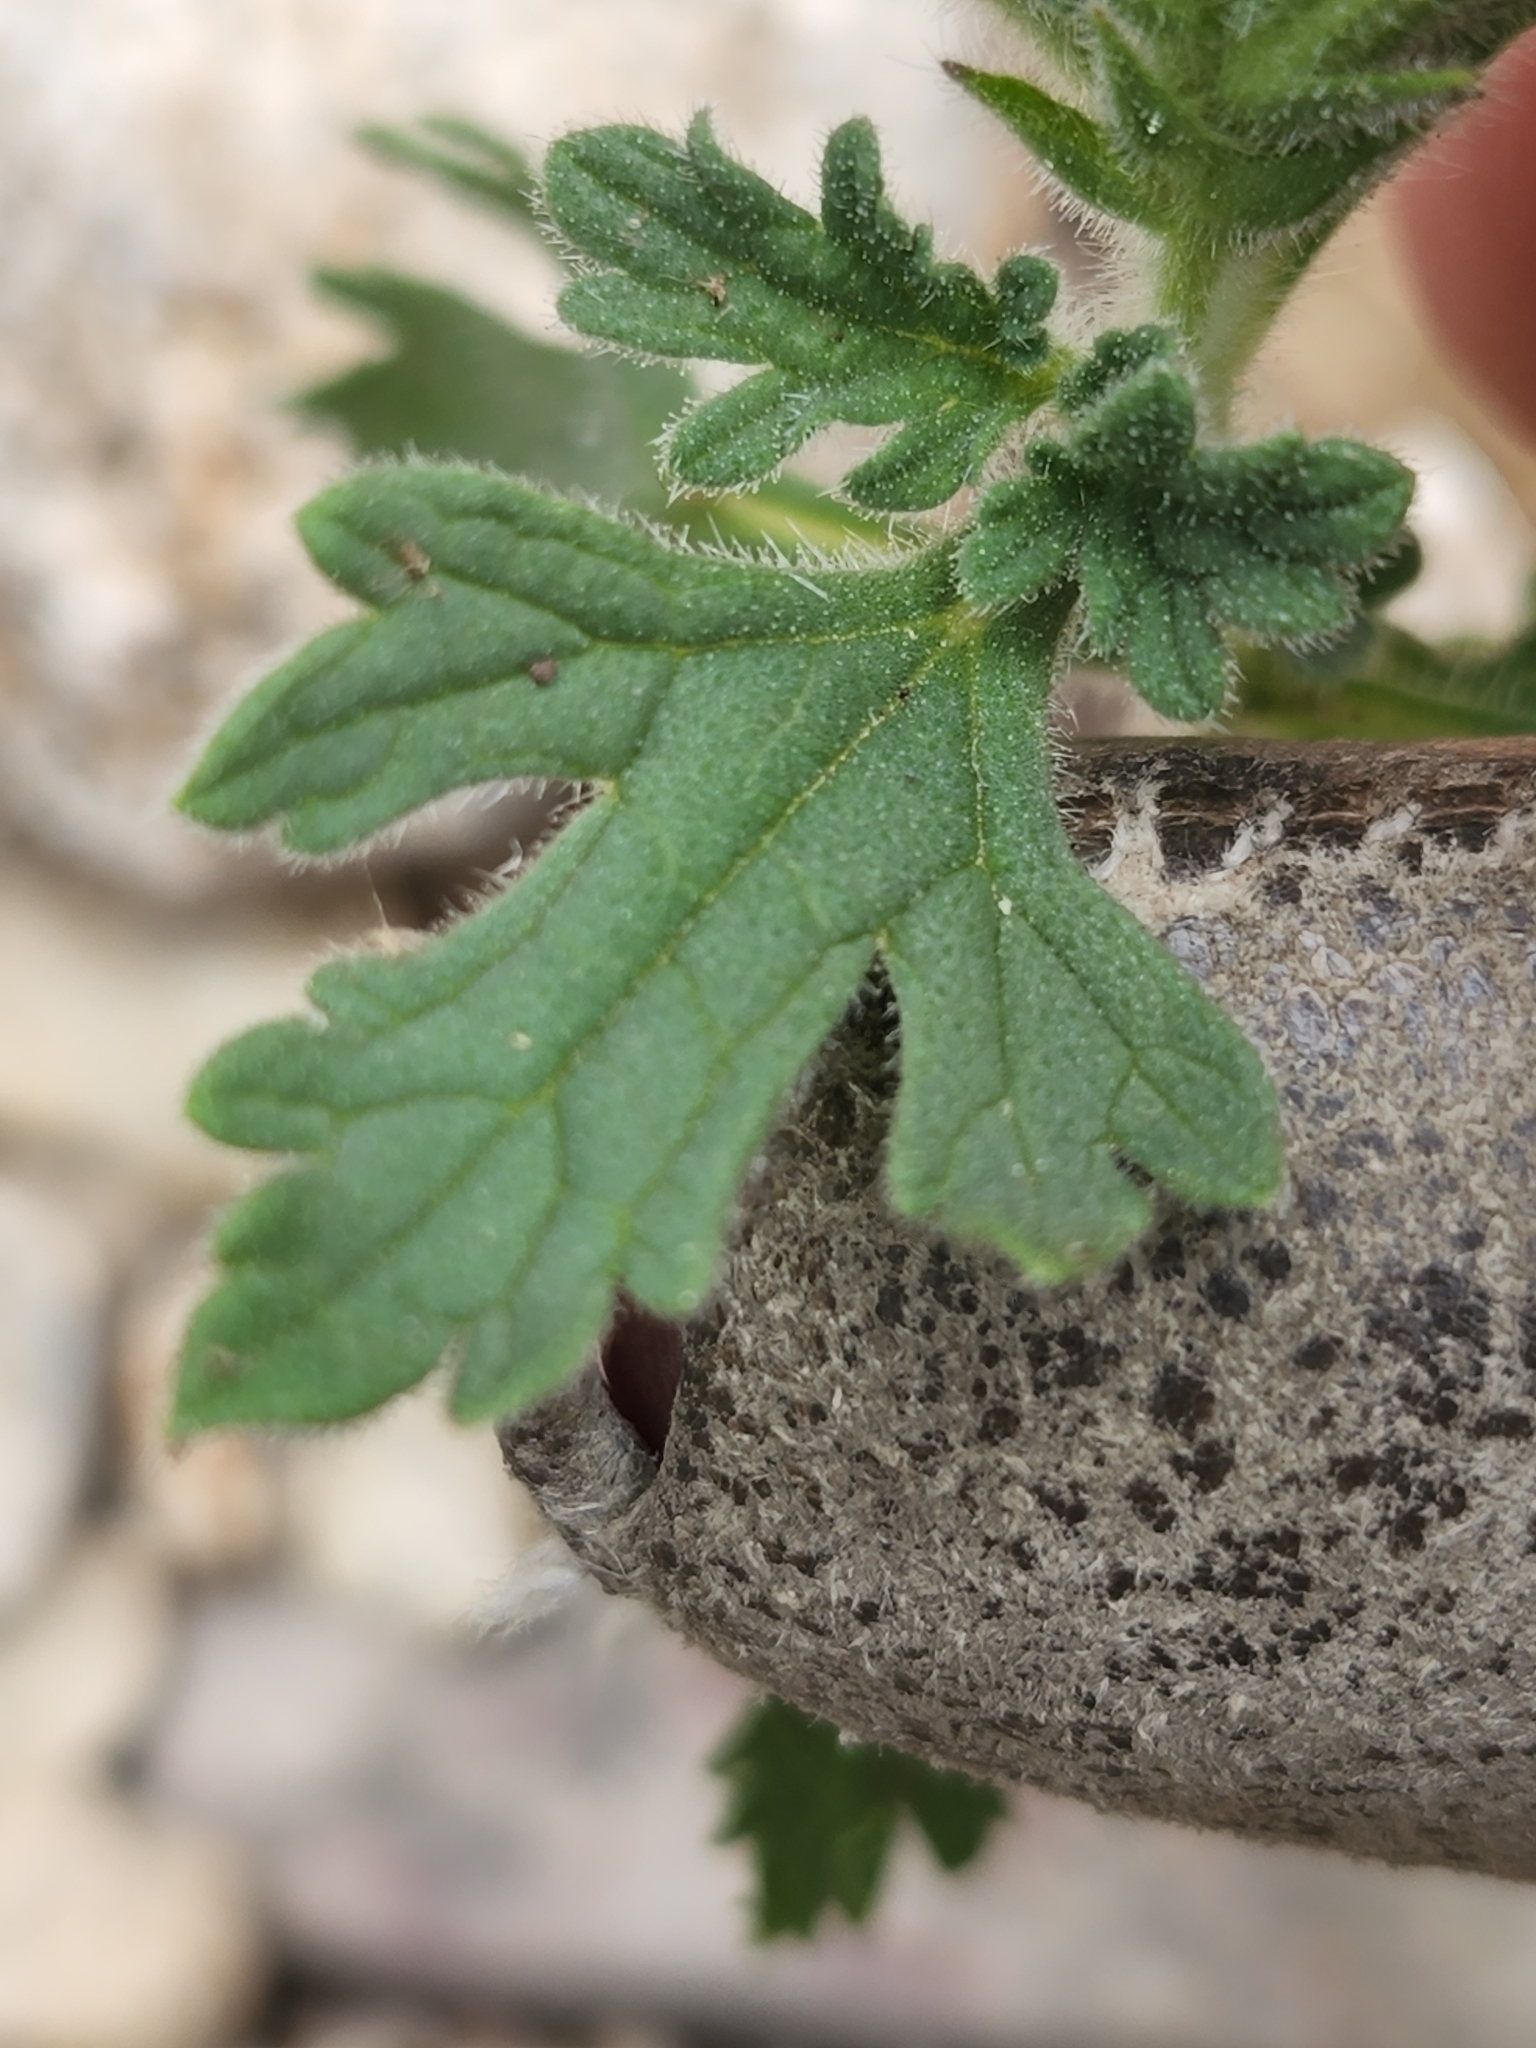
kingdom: Plantae
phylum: Tracheophyta
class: Magnoliopsida
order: Lamiales
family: Verbenaceae
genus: Verbena
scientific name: Verbena pumila
